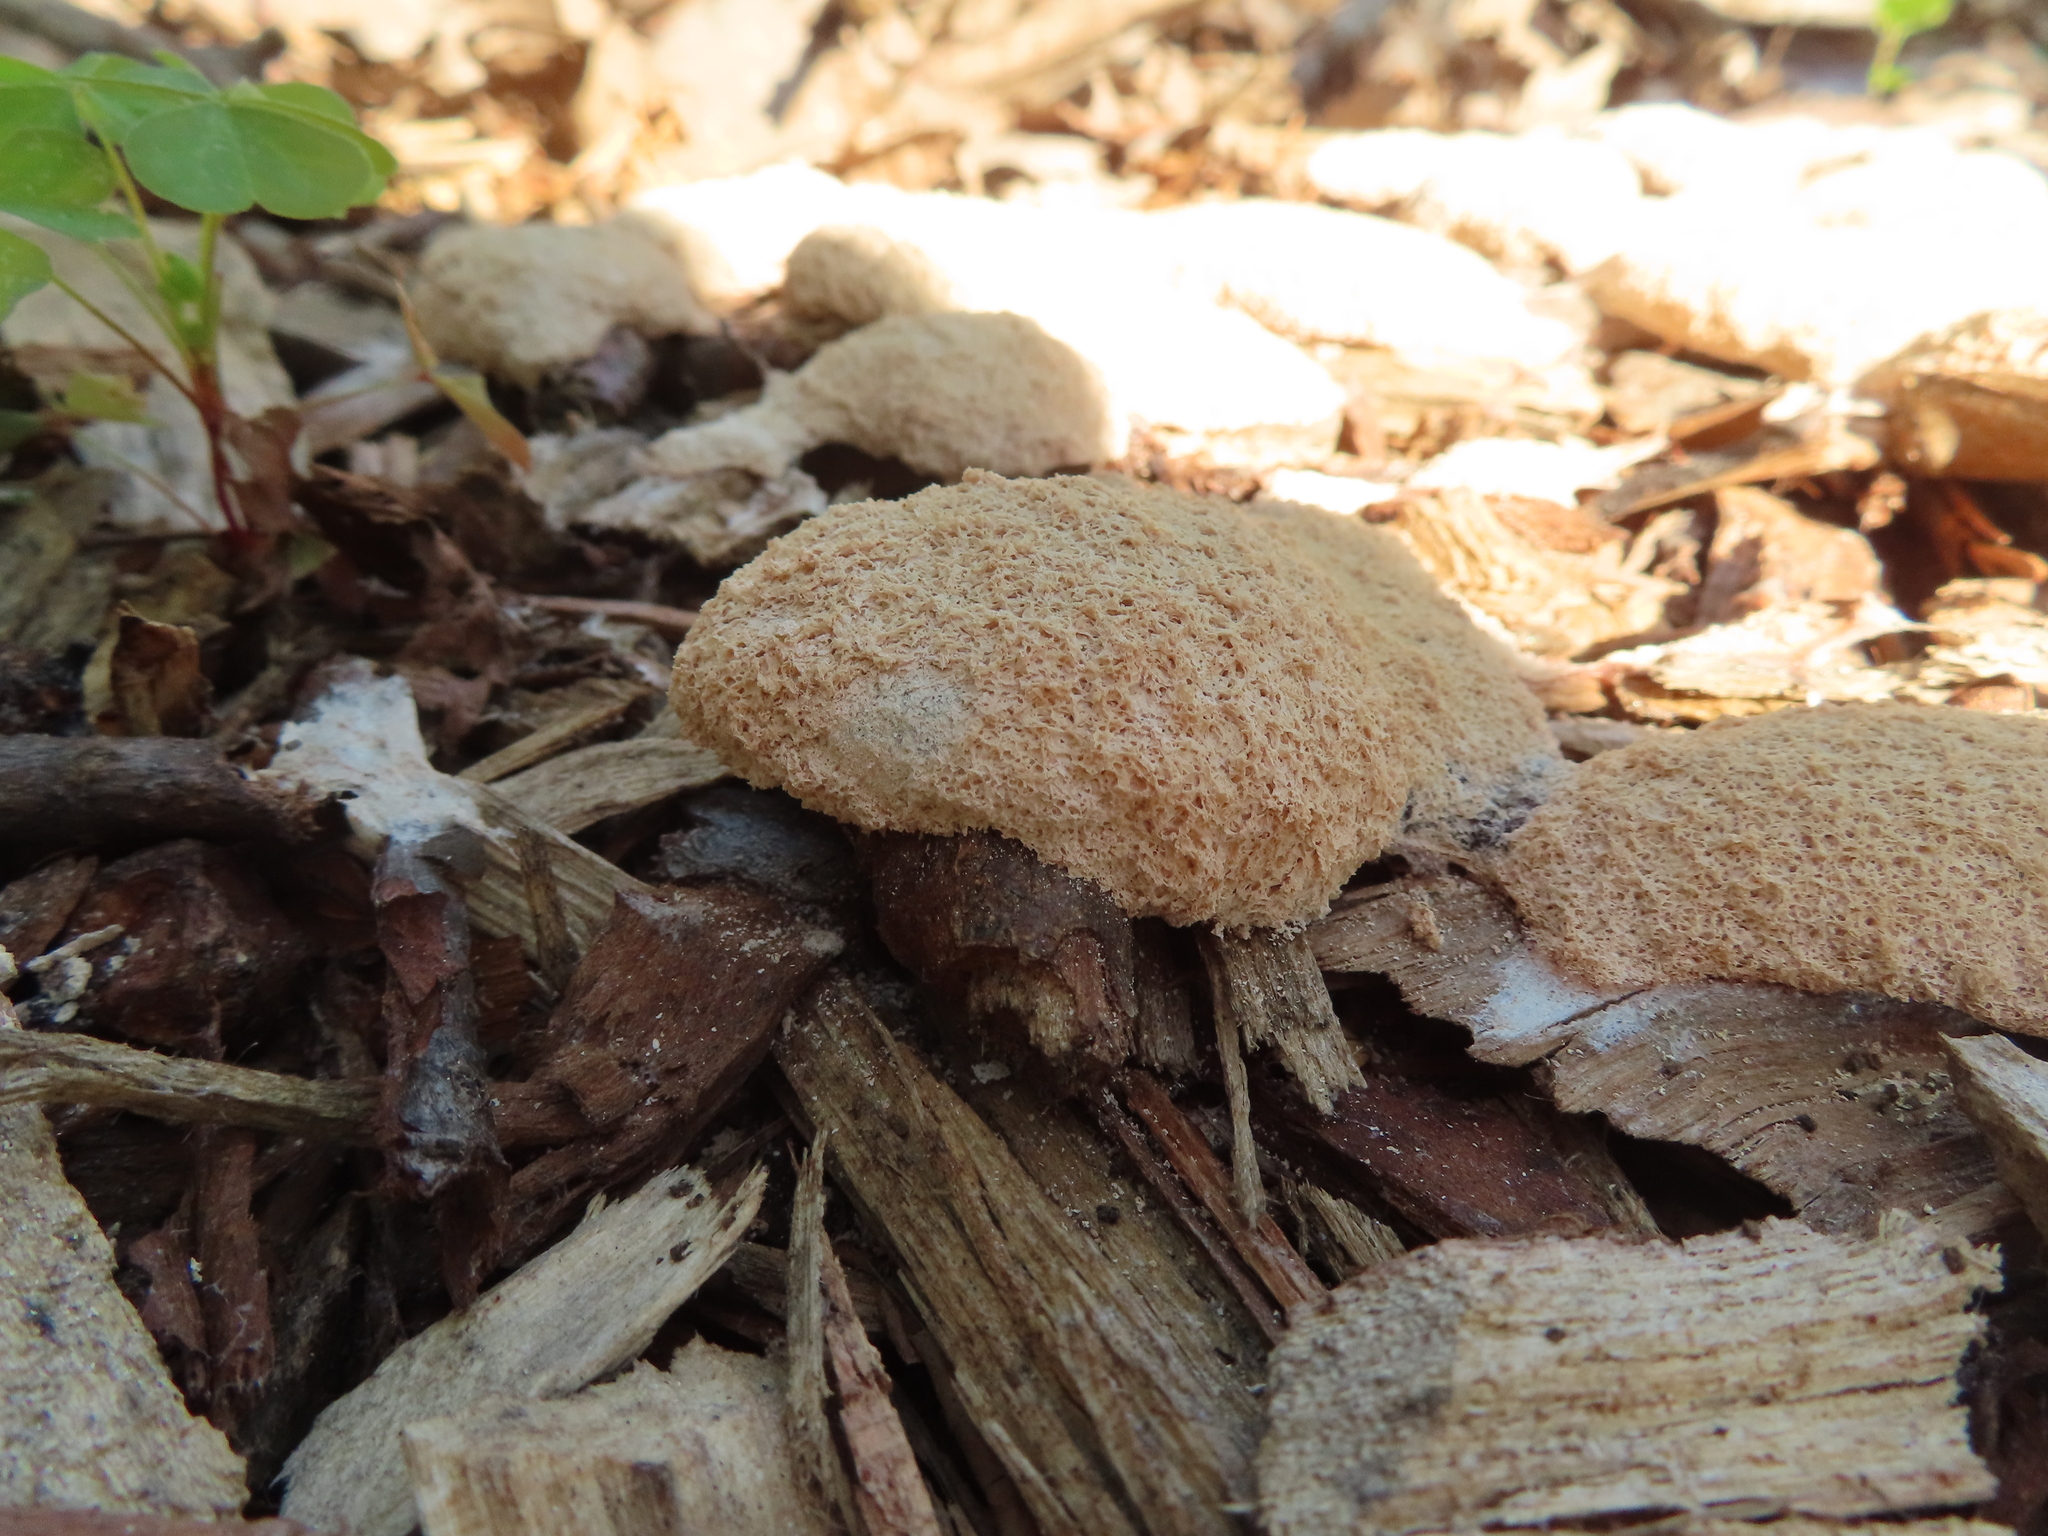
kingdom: Protozoa
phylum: Mycetozoa
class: Myxomycetes
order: Physarales
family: Physaraceae
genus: Fuligo
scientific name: Fuligo septica
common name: Dog vomit slime mold
